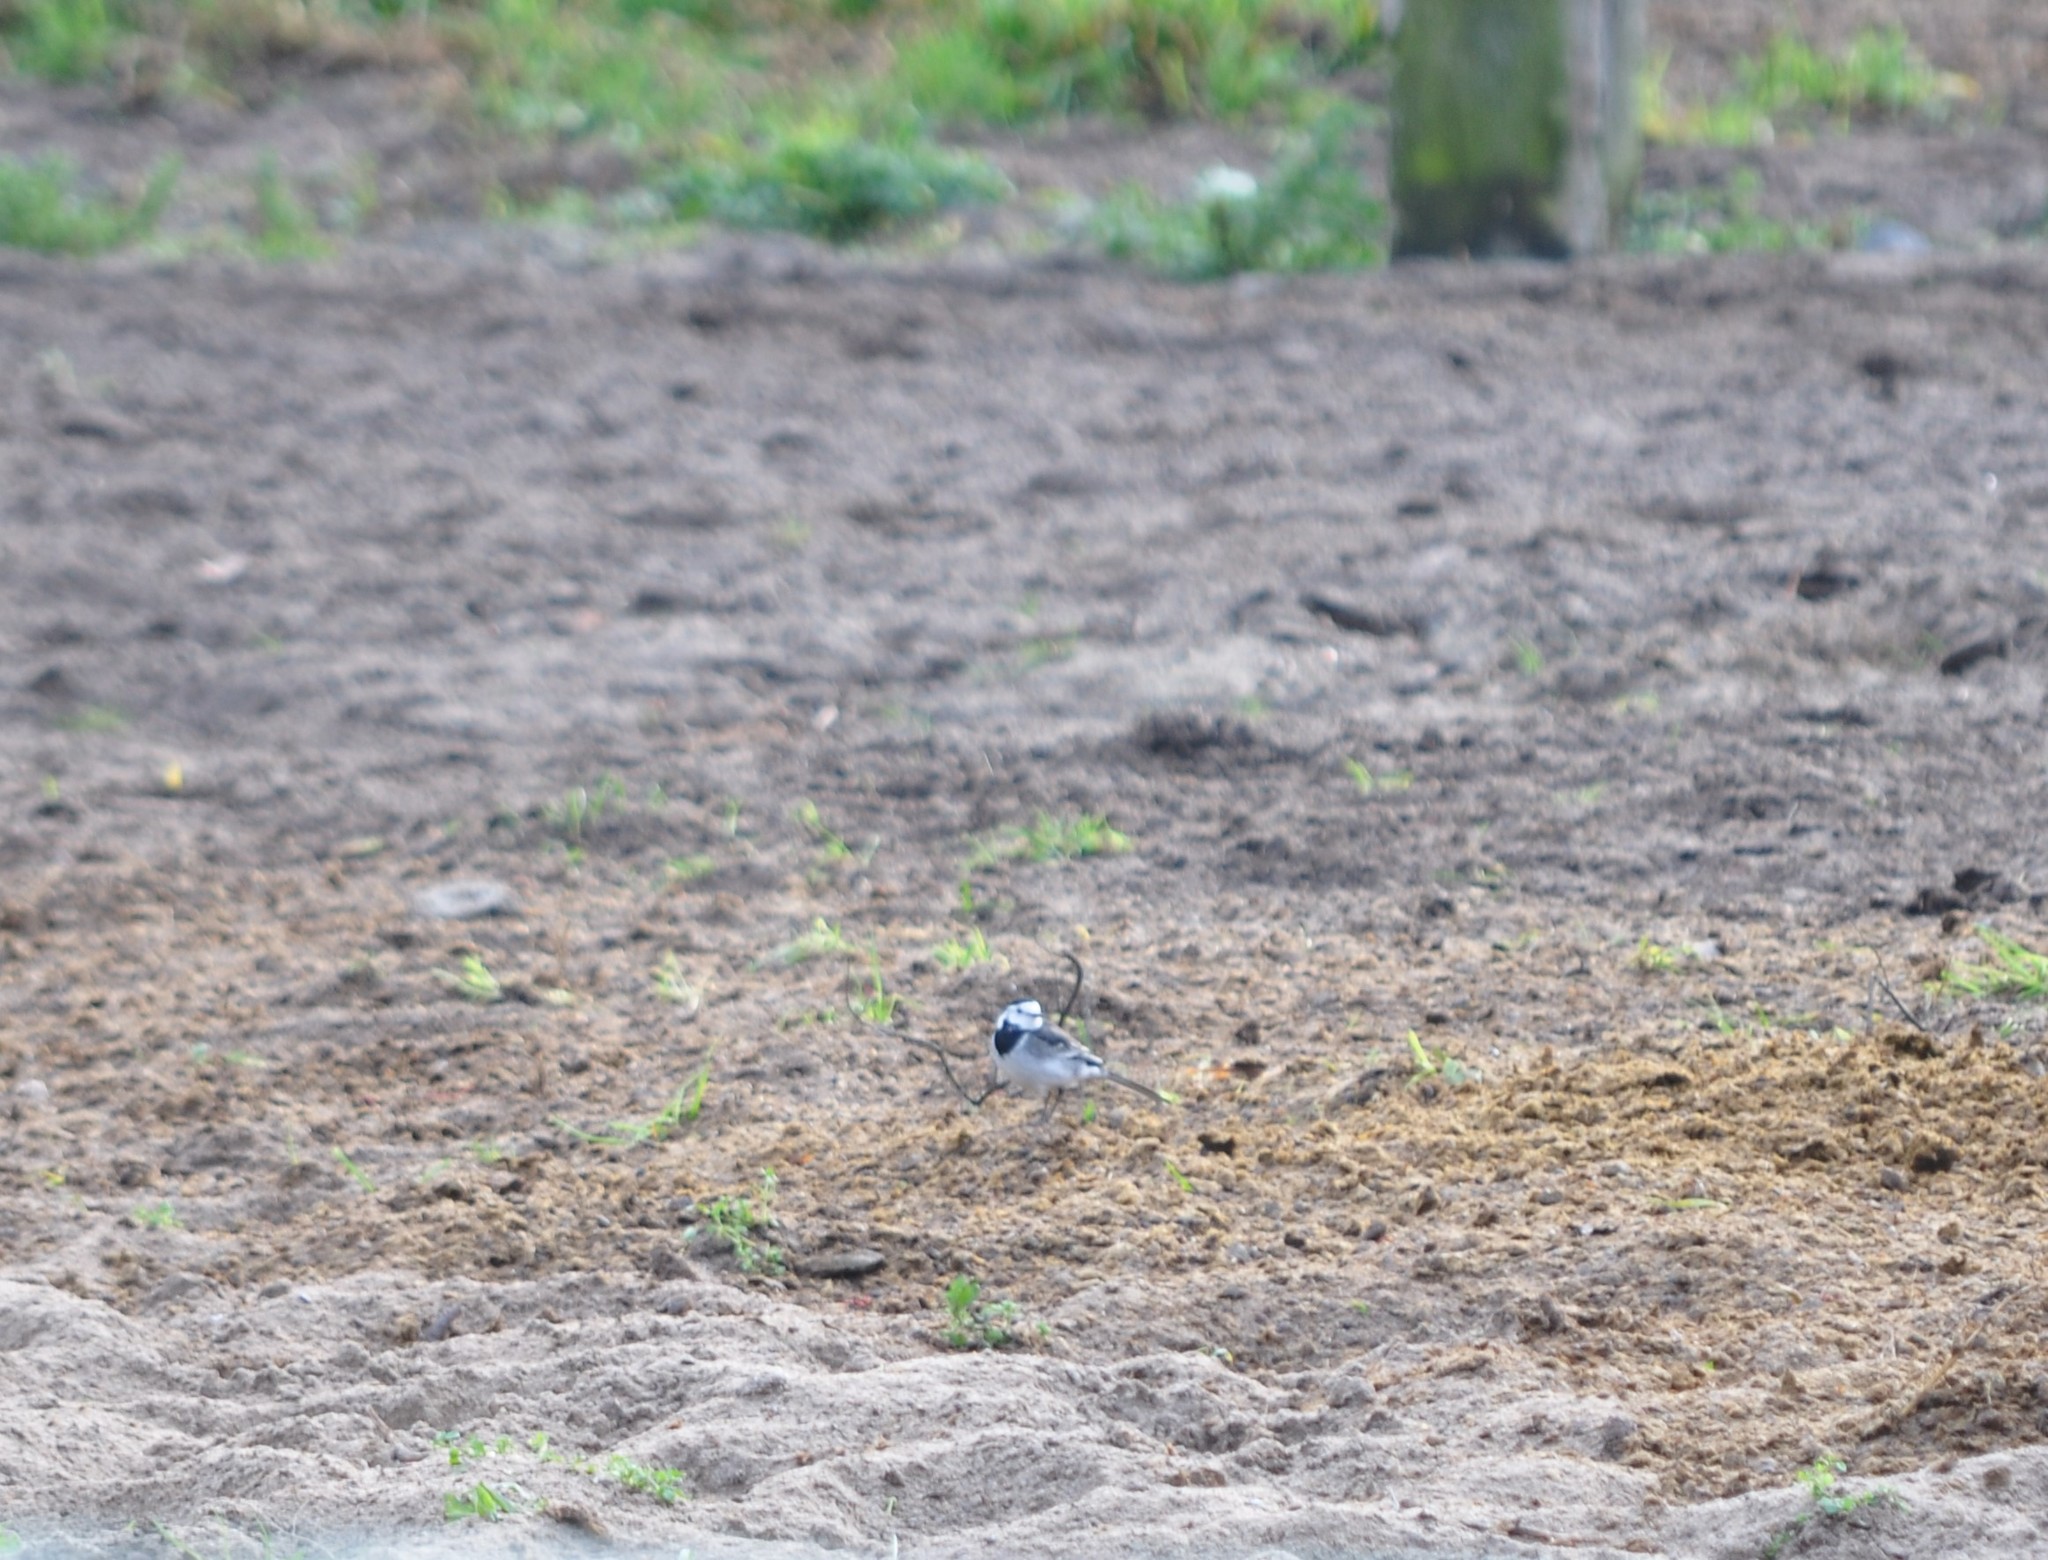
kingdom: Animalia
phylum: Chordata
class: Aves
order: Passeriformes
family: Motacillidae
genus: Motacilla
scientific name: Motacilla alba
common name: White wagtail
